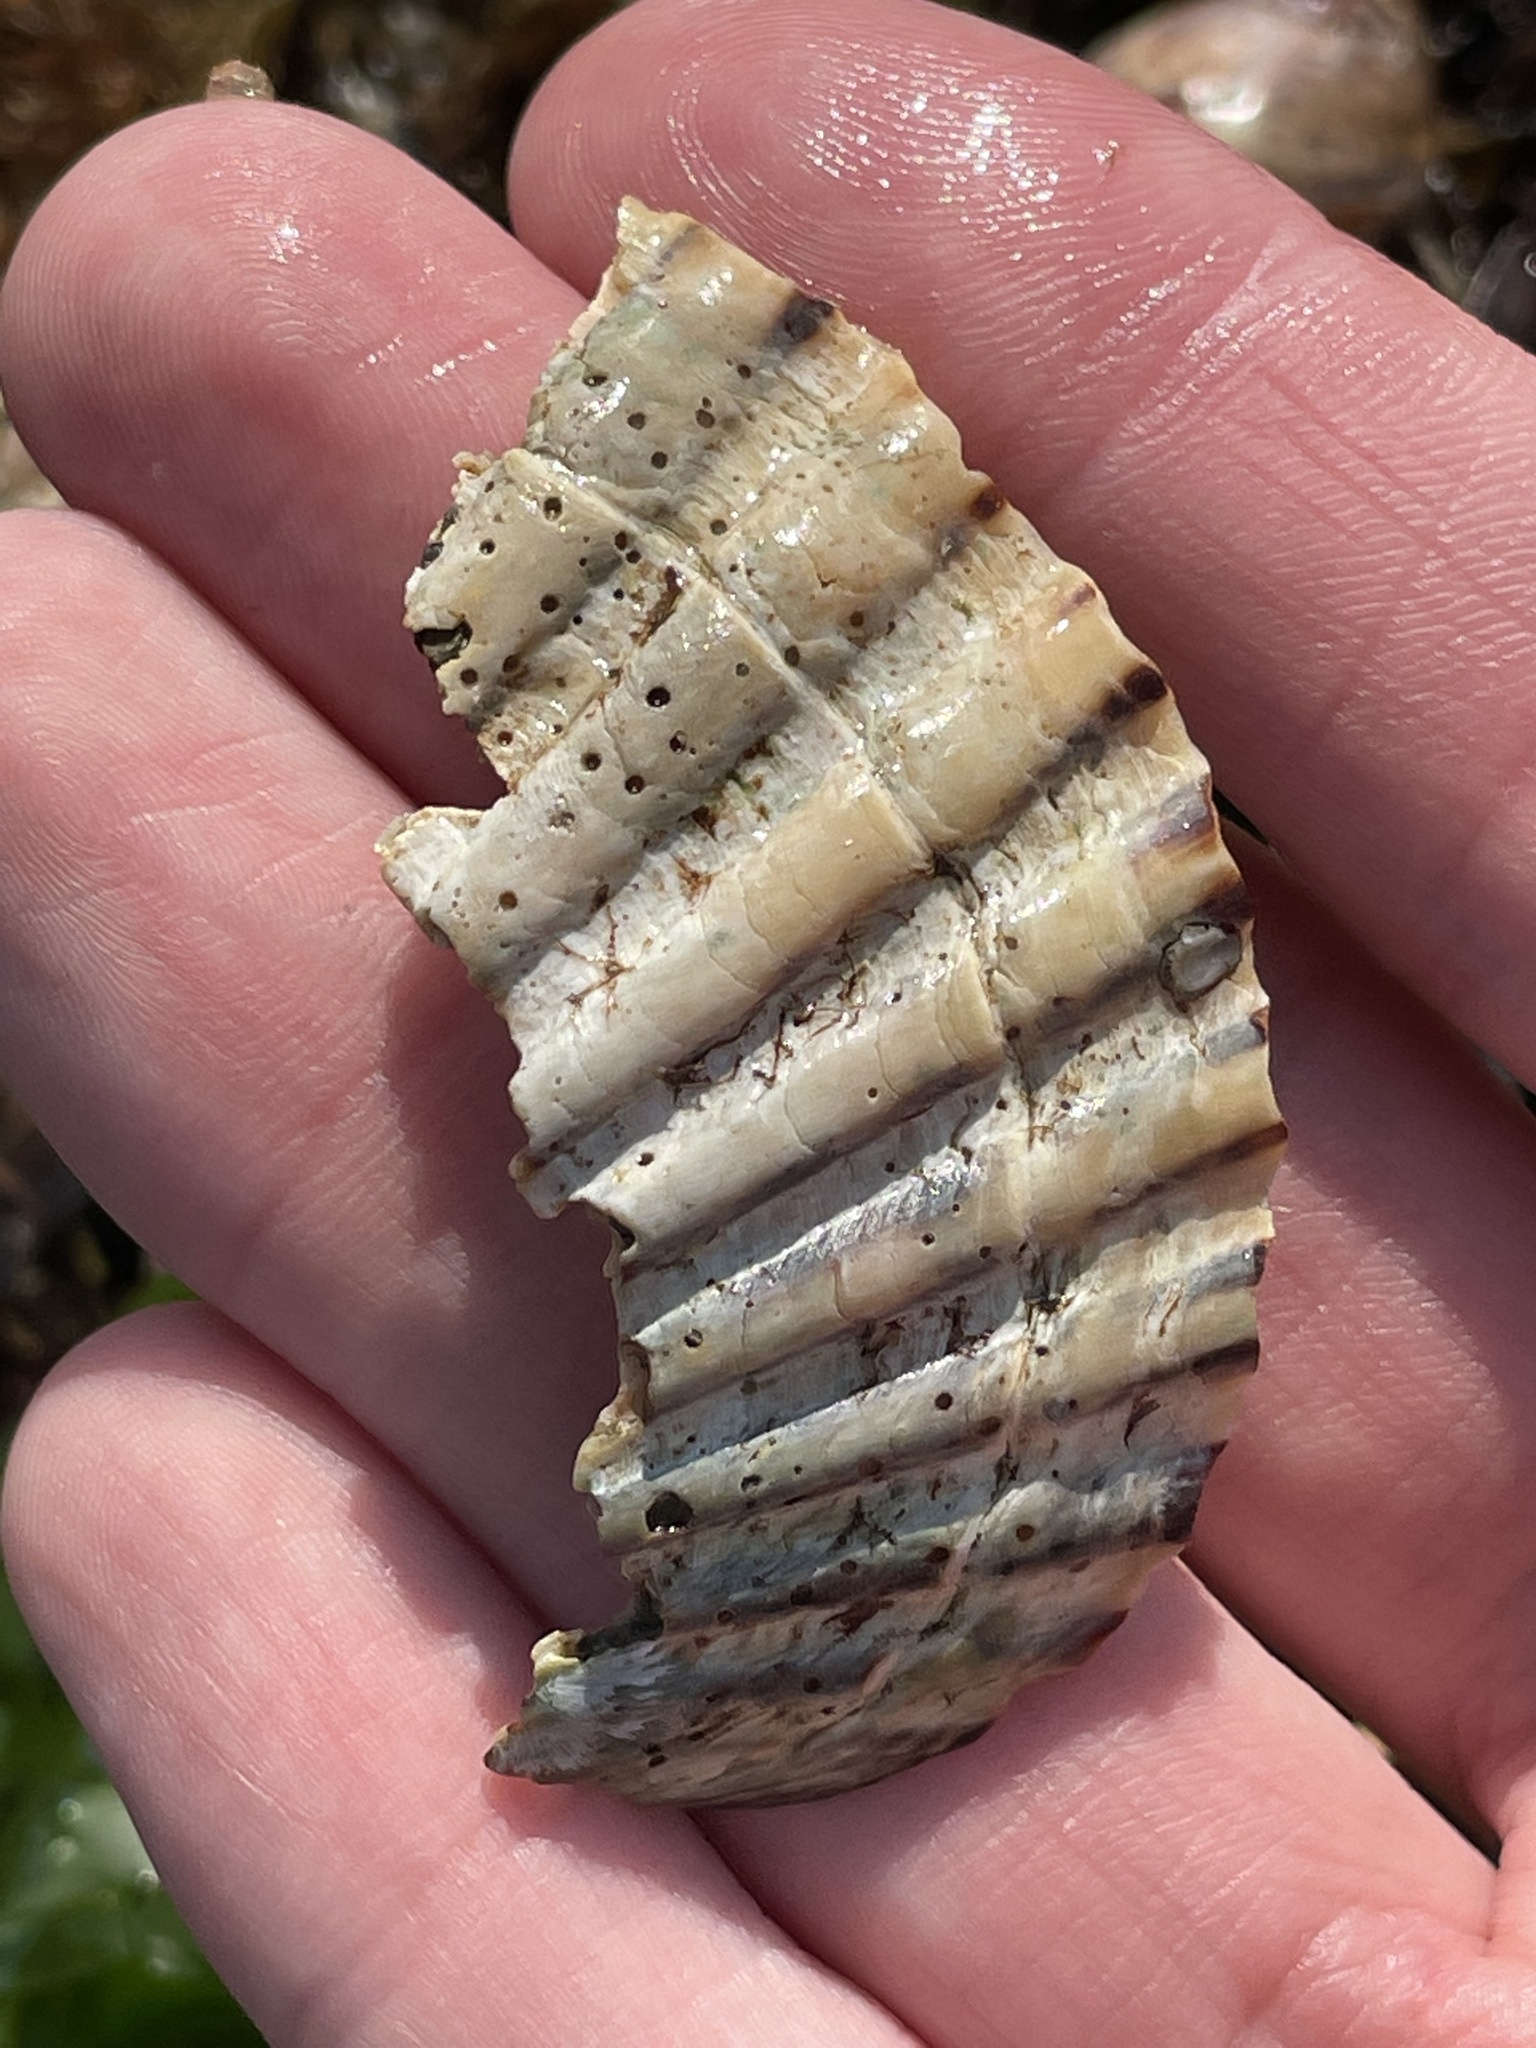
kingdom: Animalia
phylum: Mollusca
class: Bivalvia
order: Pectinida
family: Pectinidae
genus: Argopecten
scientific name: Argopecten irradians
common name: Atlantic bay scallop
